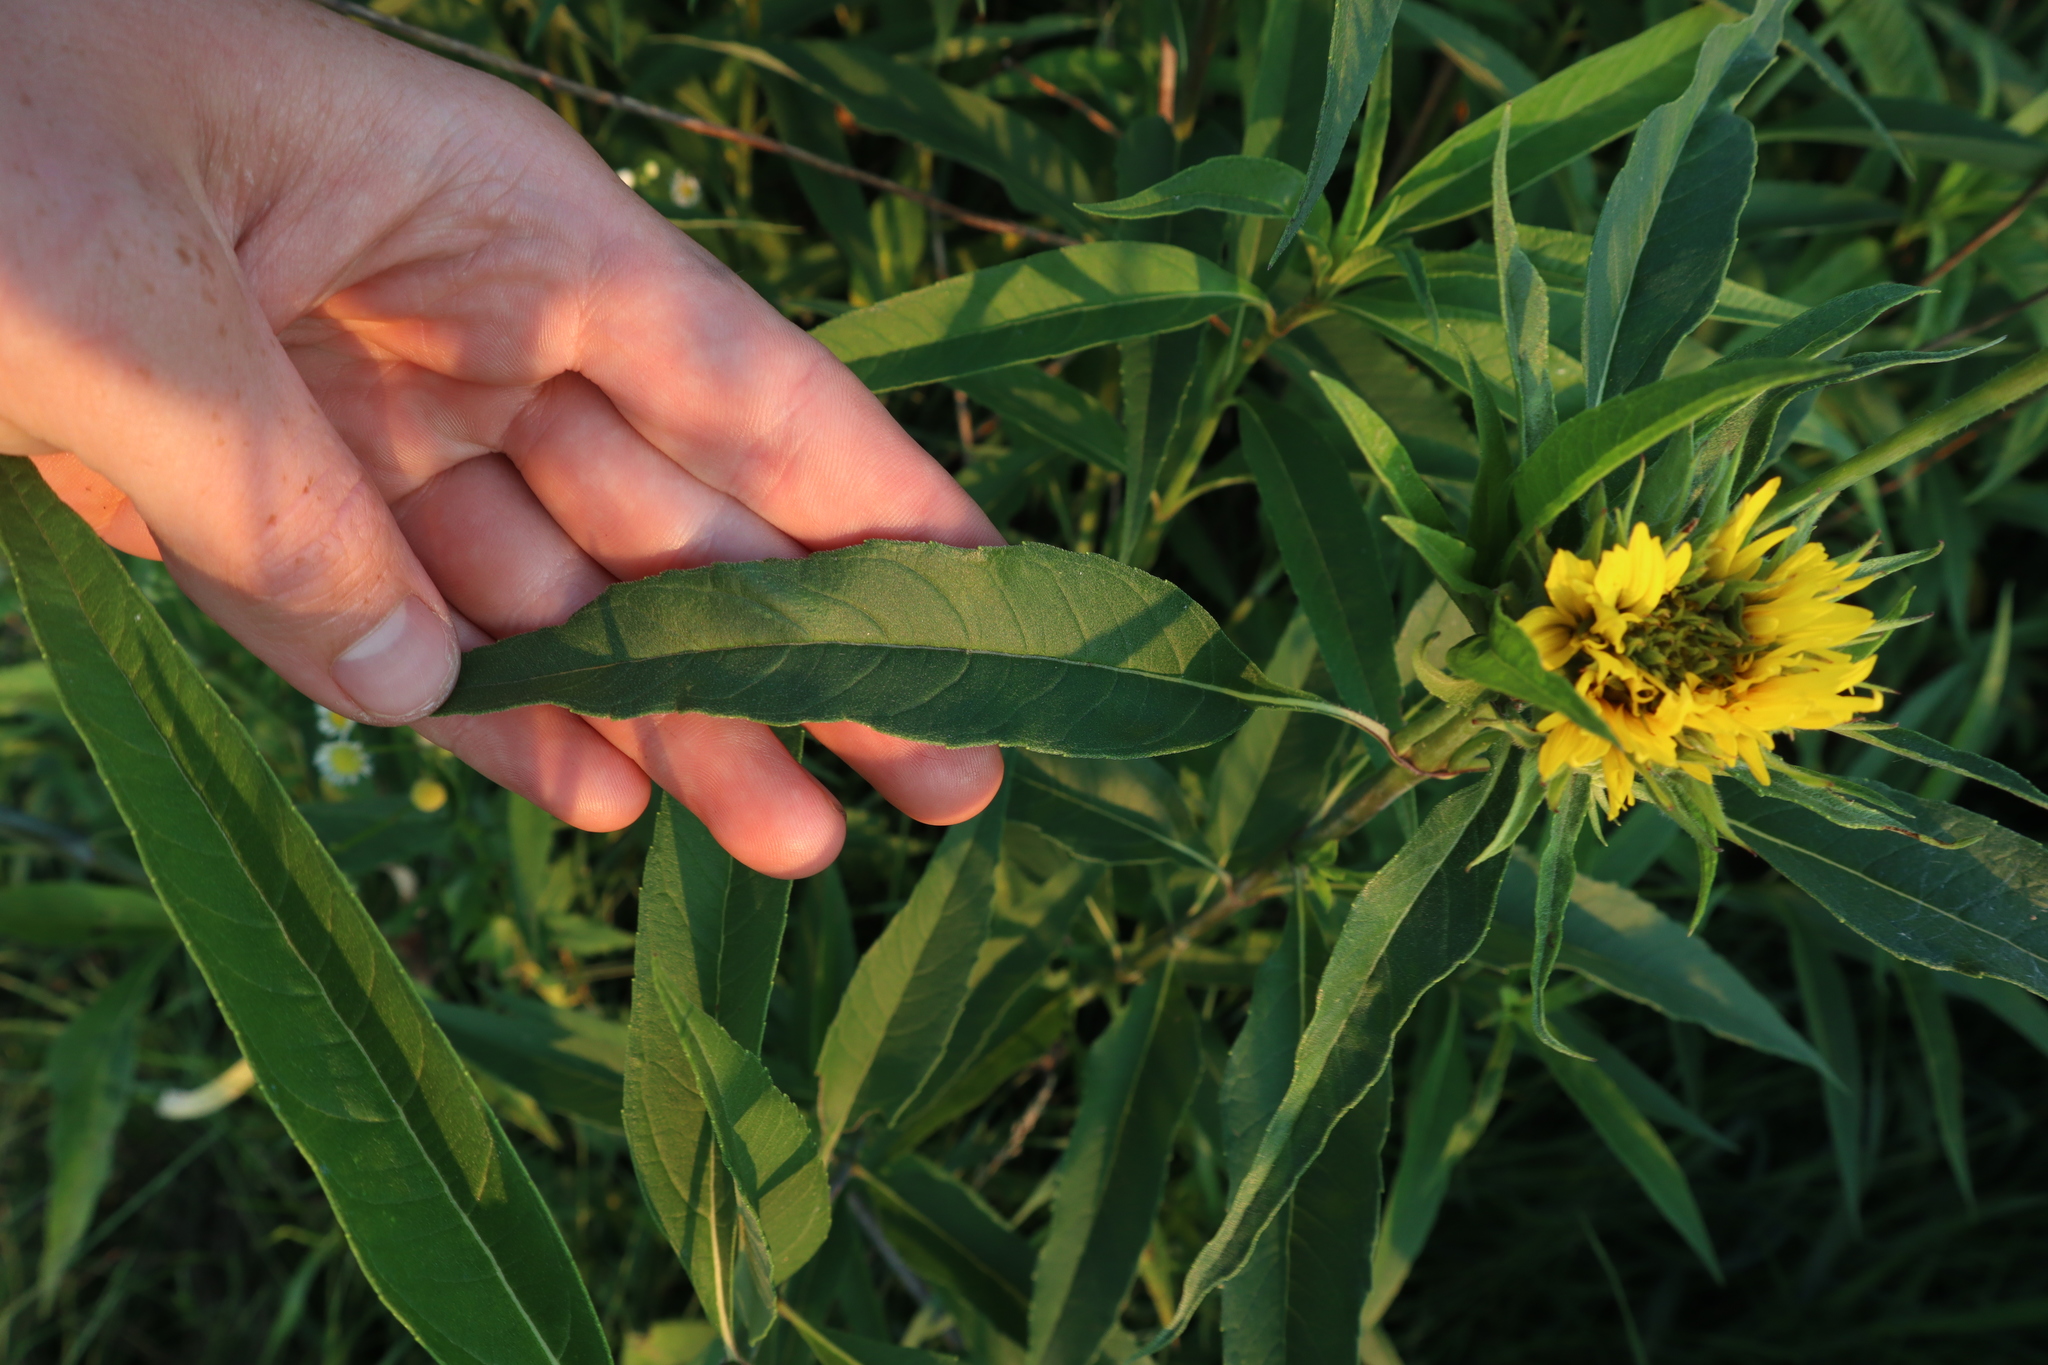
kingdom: Plantae
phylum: Tracheophyta
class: Magnoliopsida
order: Asterales
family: Asteraceae
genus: Helianthus
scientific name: Helianthus grosseserratus
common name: Sawtooth sunflower
